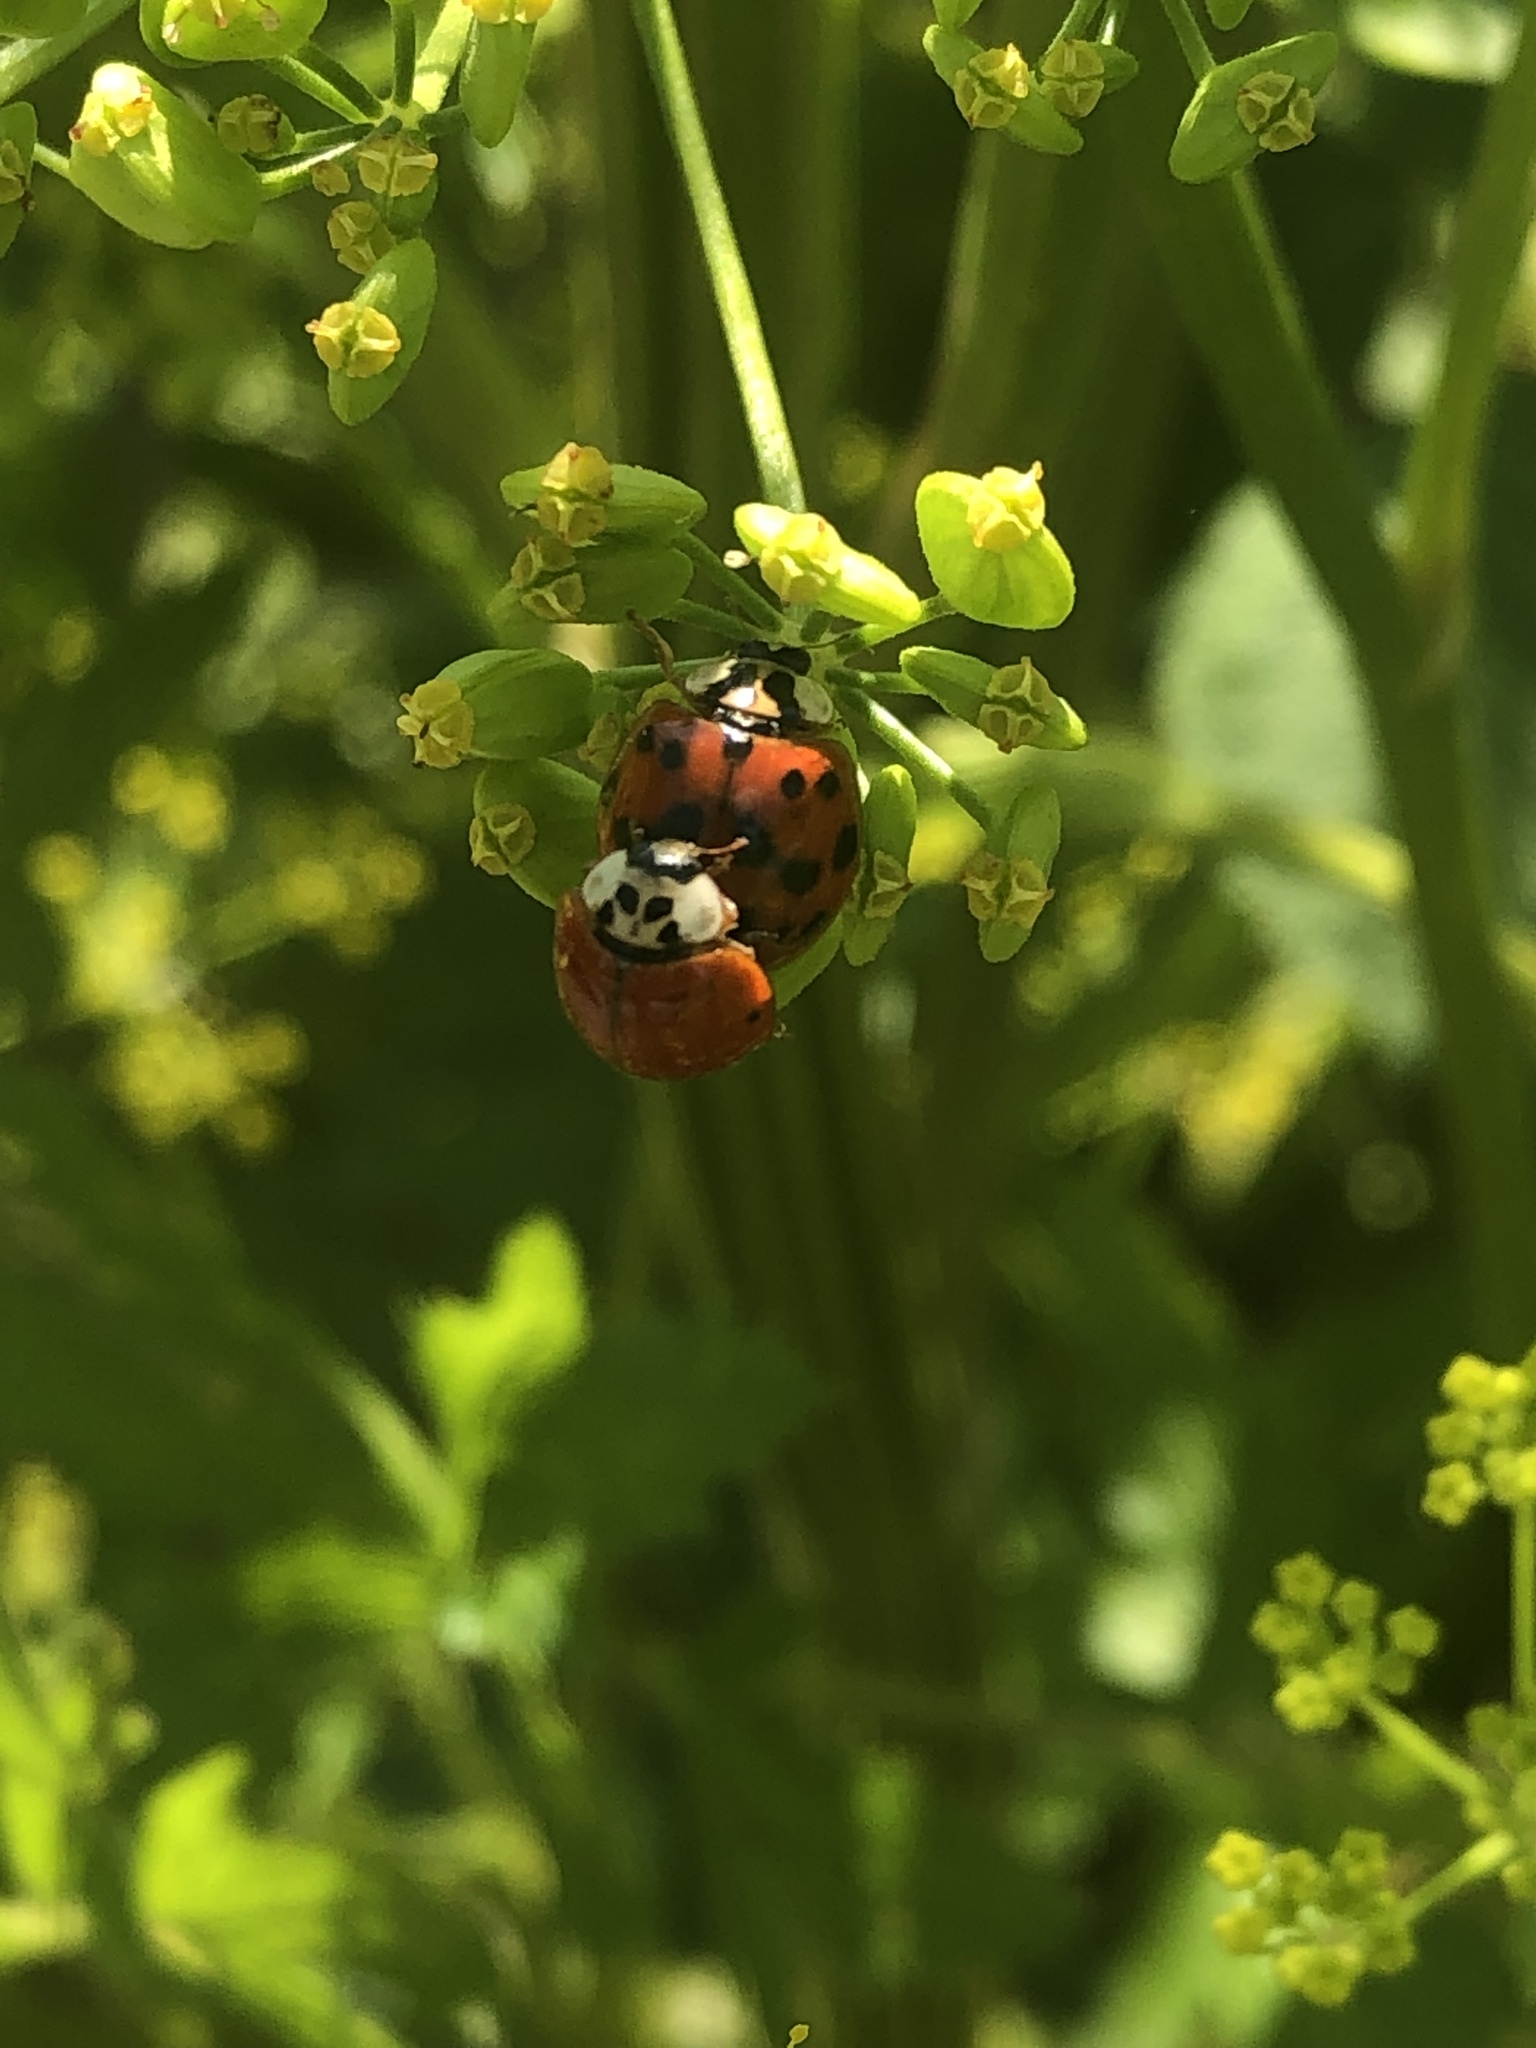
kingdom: Animalia
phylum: Arthropoda
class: Insecta
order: Coleoptera
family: Coccinellidae
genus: Harmonia
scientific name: Harmonia axyridis
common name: Harlequin ladybird
